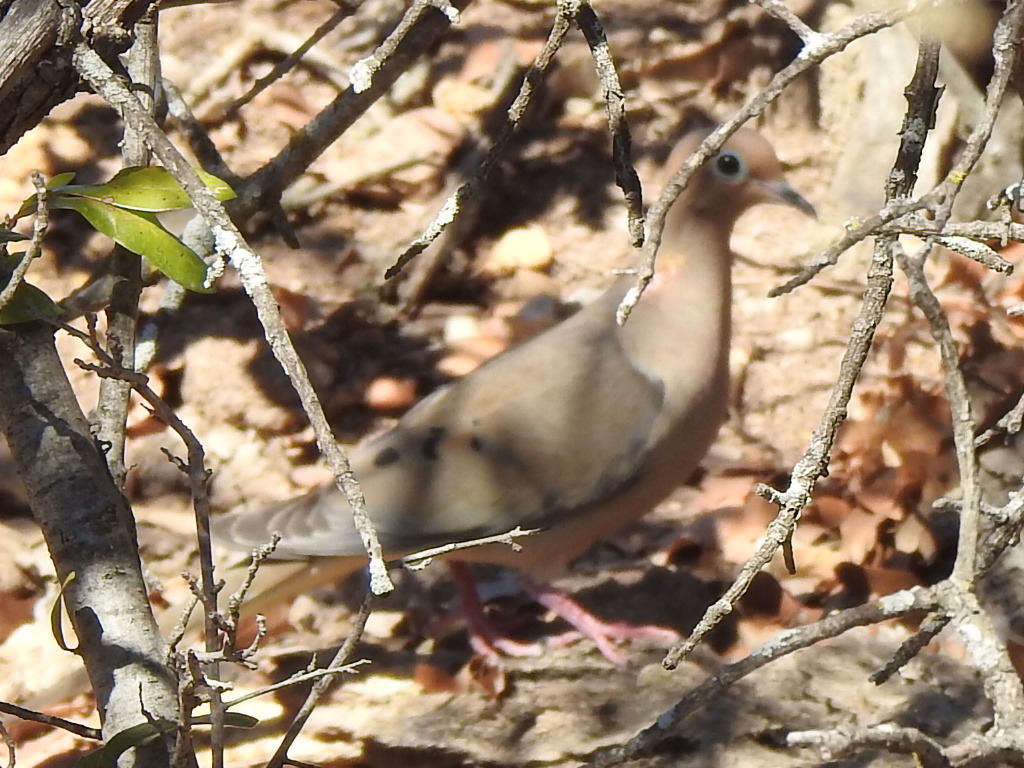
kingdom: Animalia
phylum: Chordata
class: Aves
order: Columbiformes
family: Columbidae
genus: Zenaida
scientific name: Zenaida macroura
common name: Mourning dove
